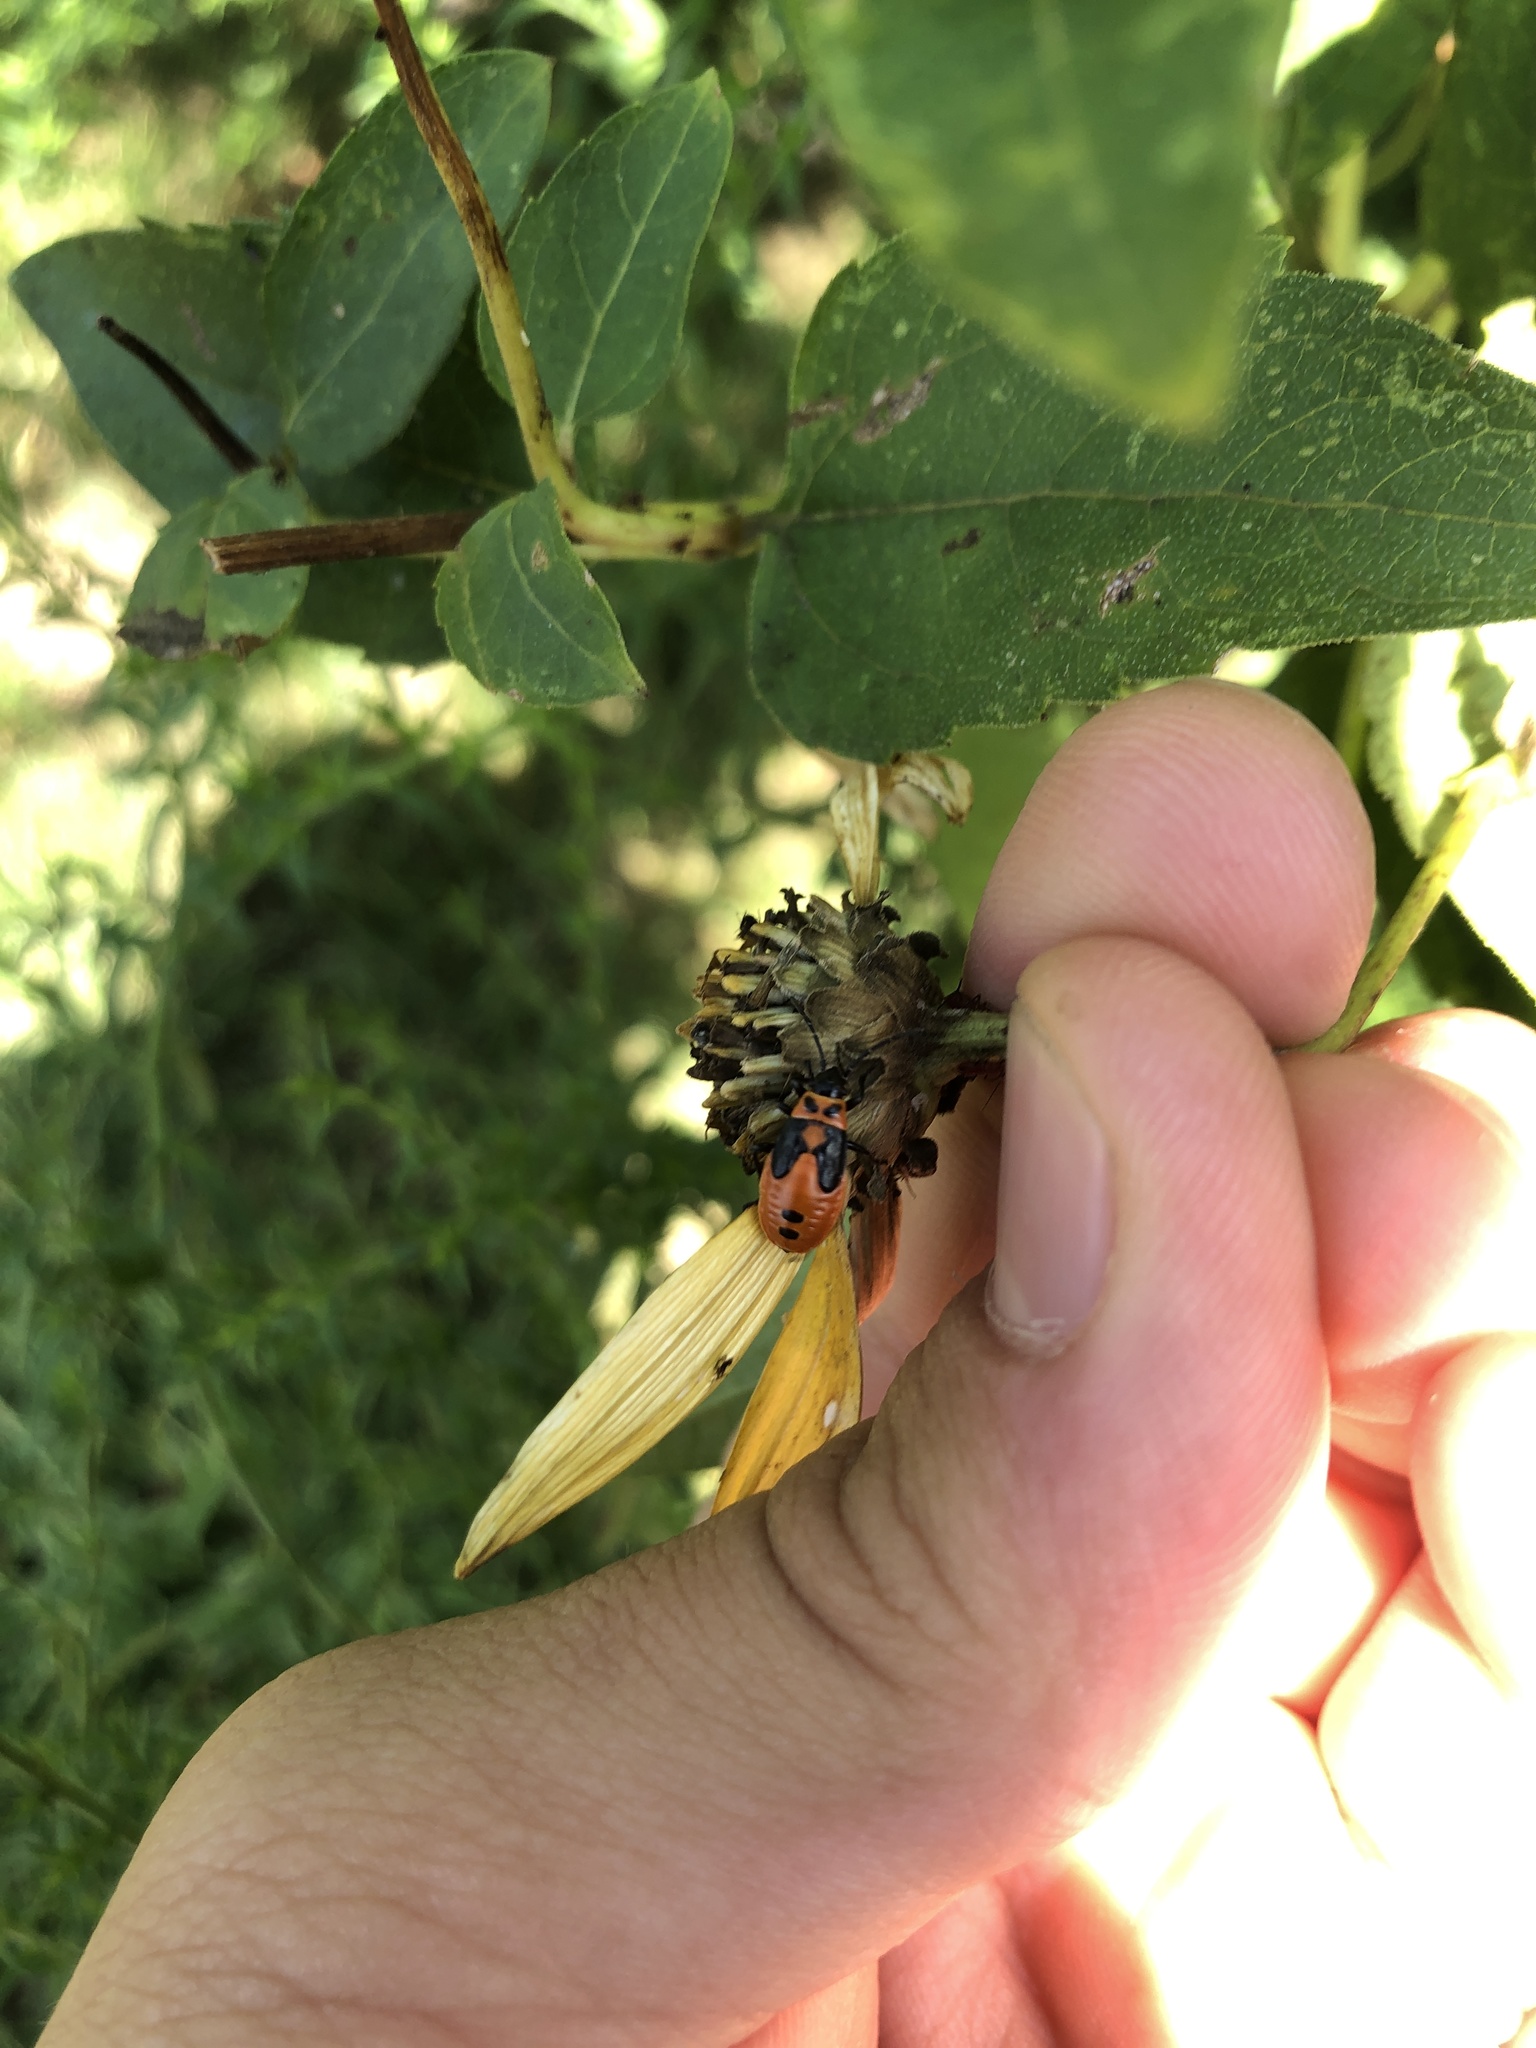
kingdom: Animalia
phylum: Arthropoda
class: Insecta
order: Hemiptera
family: Lygaeidae
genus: Lygaeus
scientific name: Lygaeus turcicus
